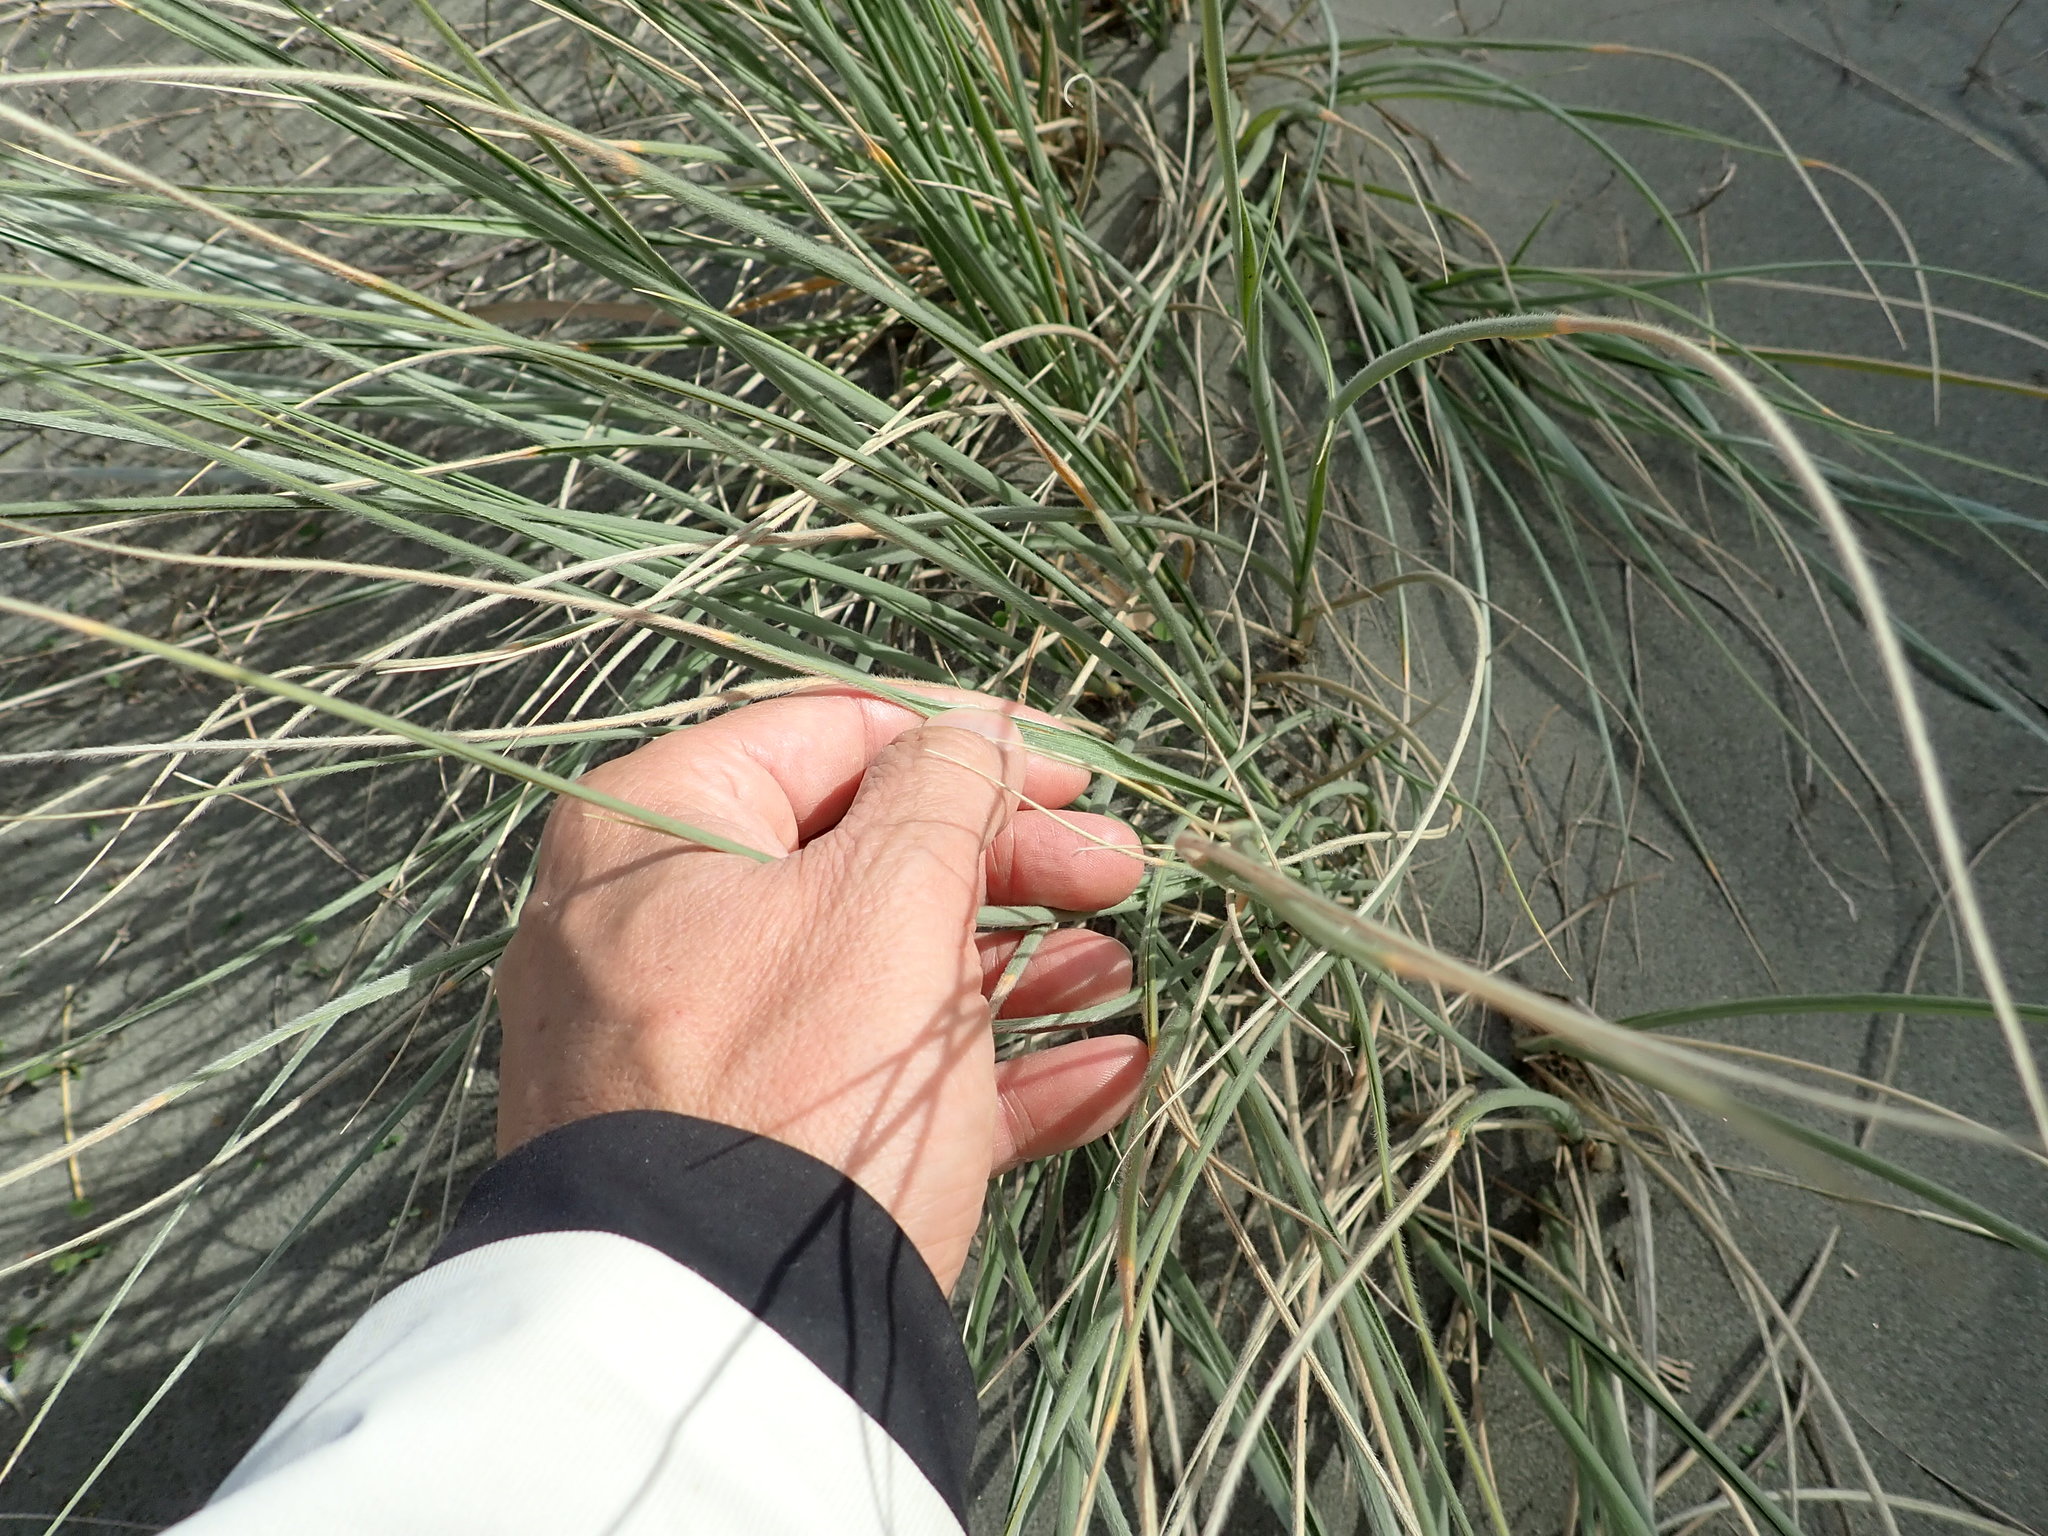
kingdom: Plantae
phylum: Tracheophyta
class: Liliopsida
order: Poales
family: Poaceae
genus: Spinifex
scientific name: Spinifex sericeus
